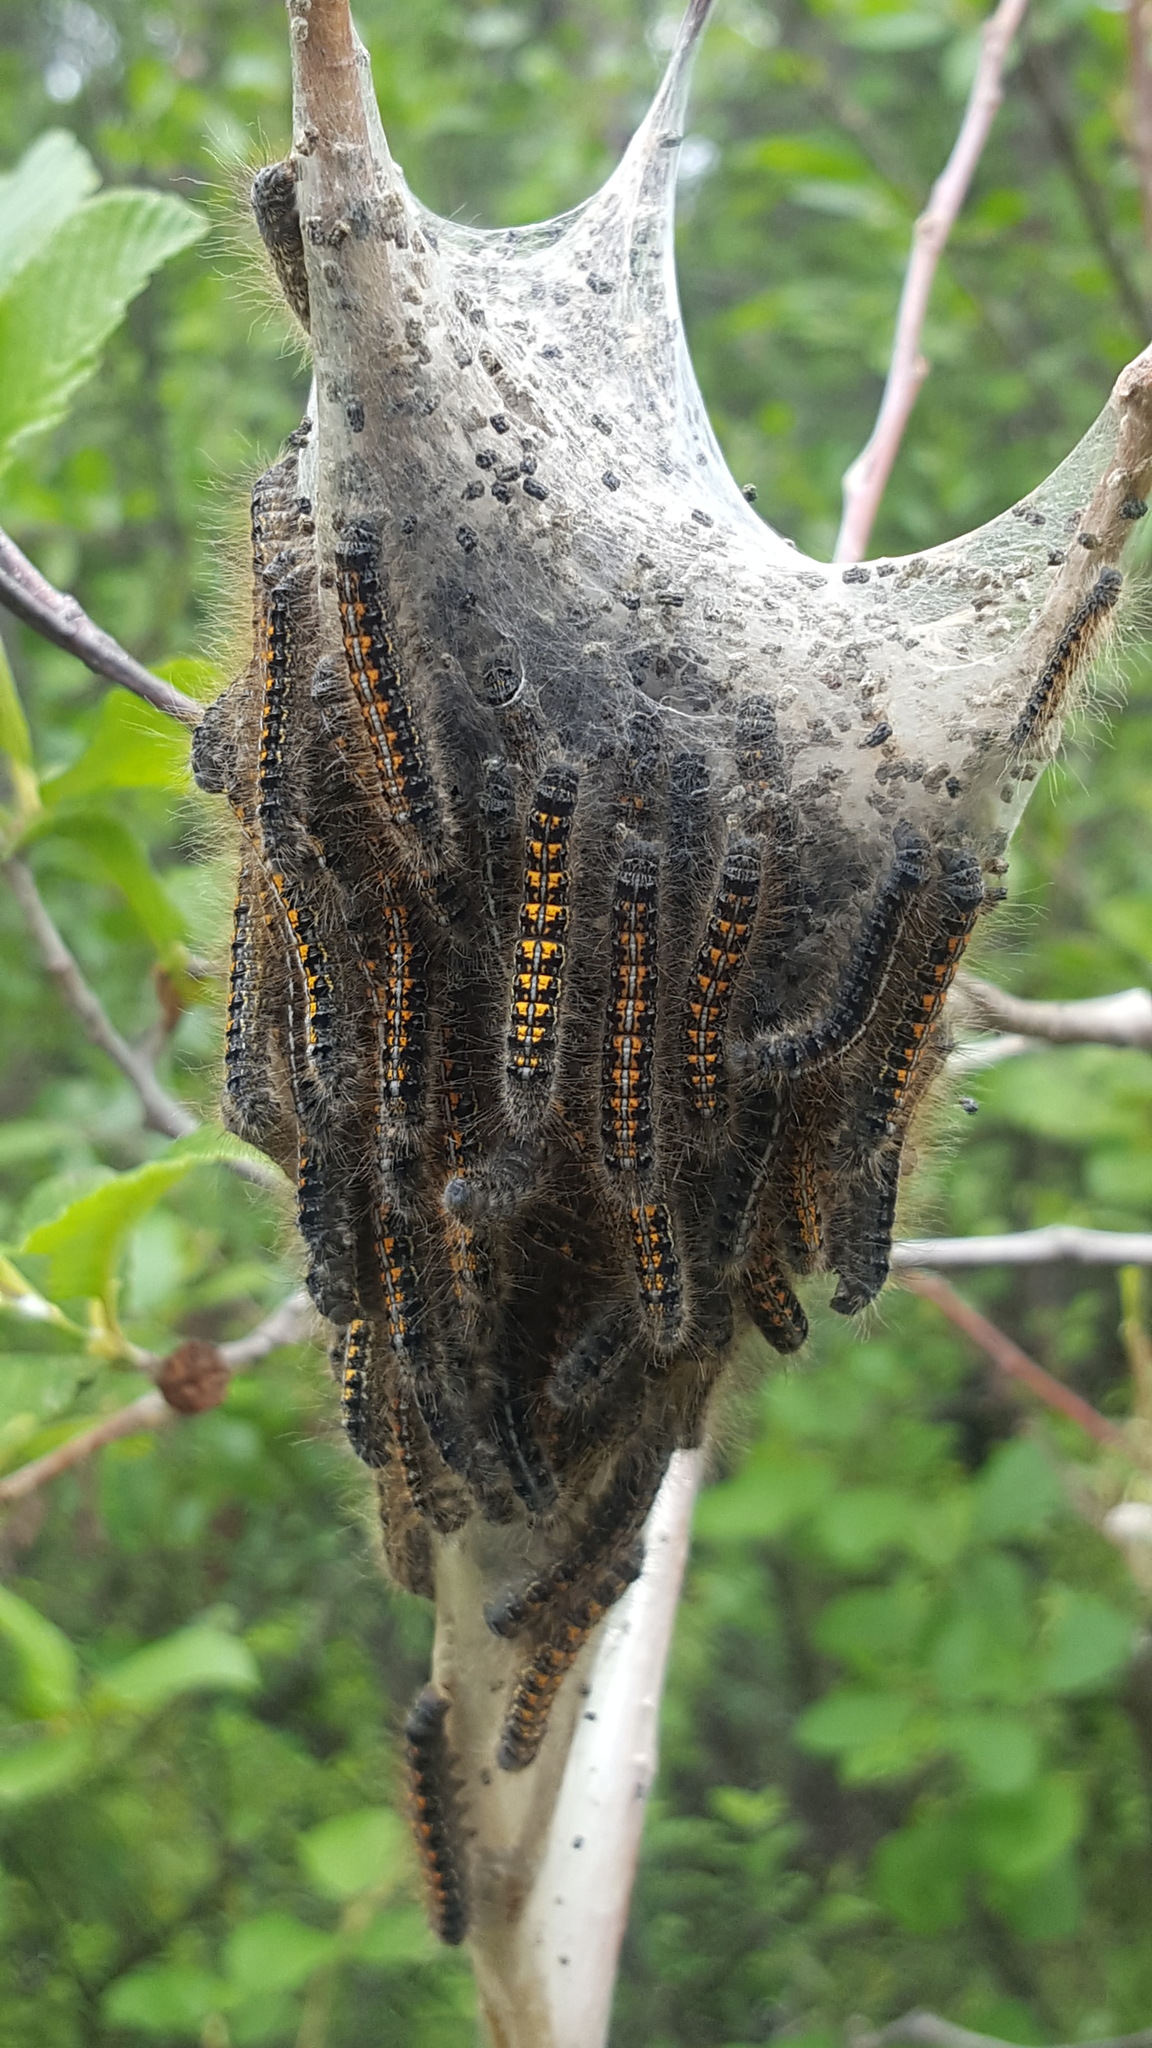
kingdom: Animalia
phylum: Arthropoda
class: Insecta
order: Lepidoptera
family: Lasiocampidae
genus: Malacosoma
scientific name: Malacosoma californica
